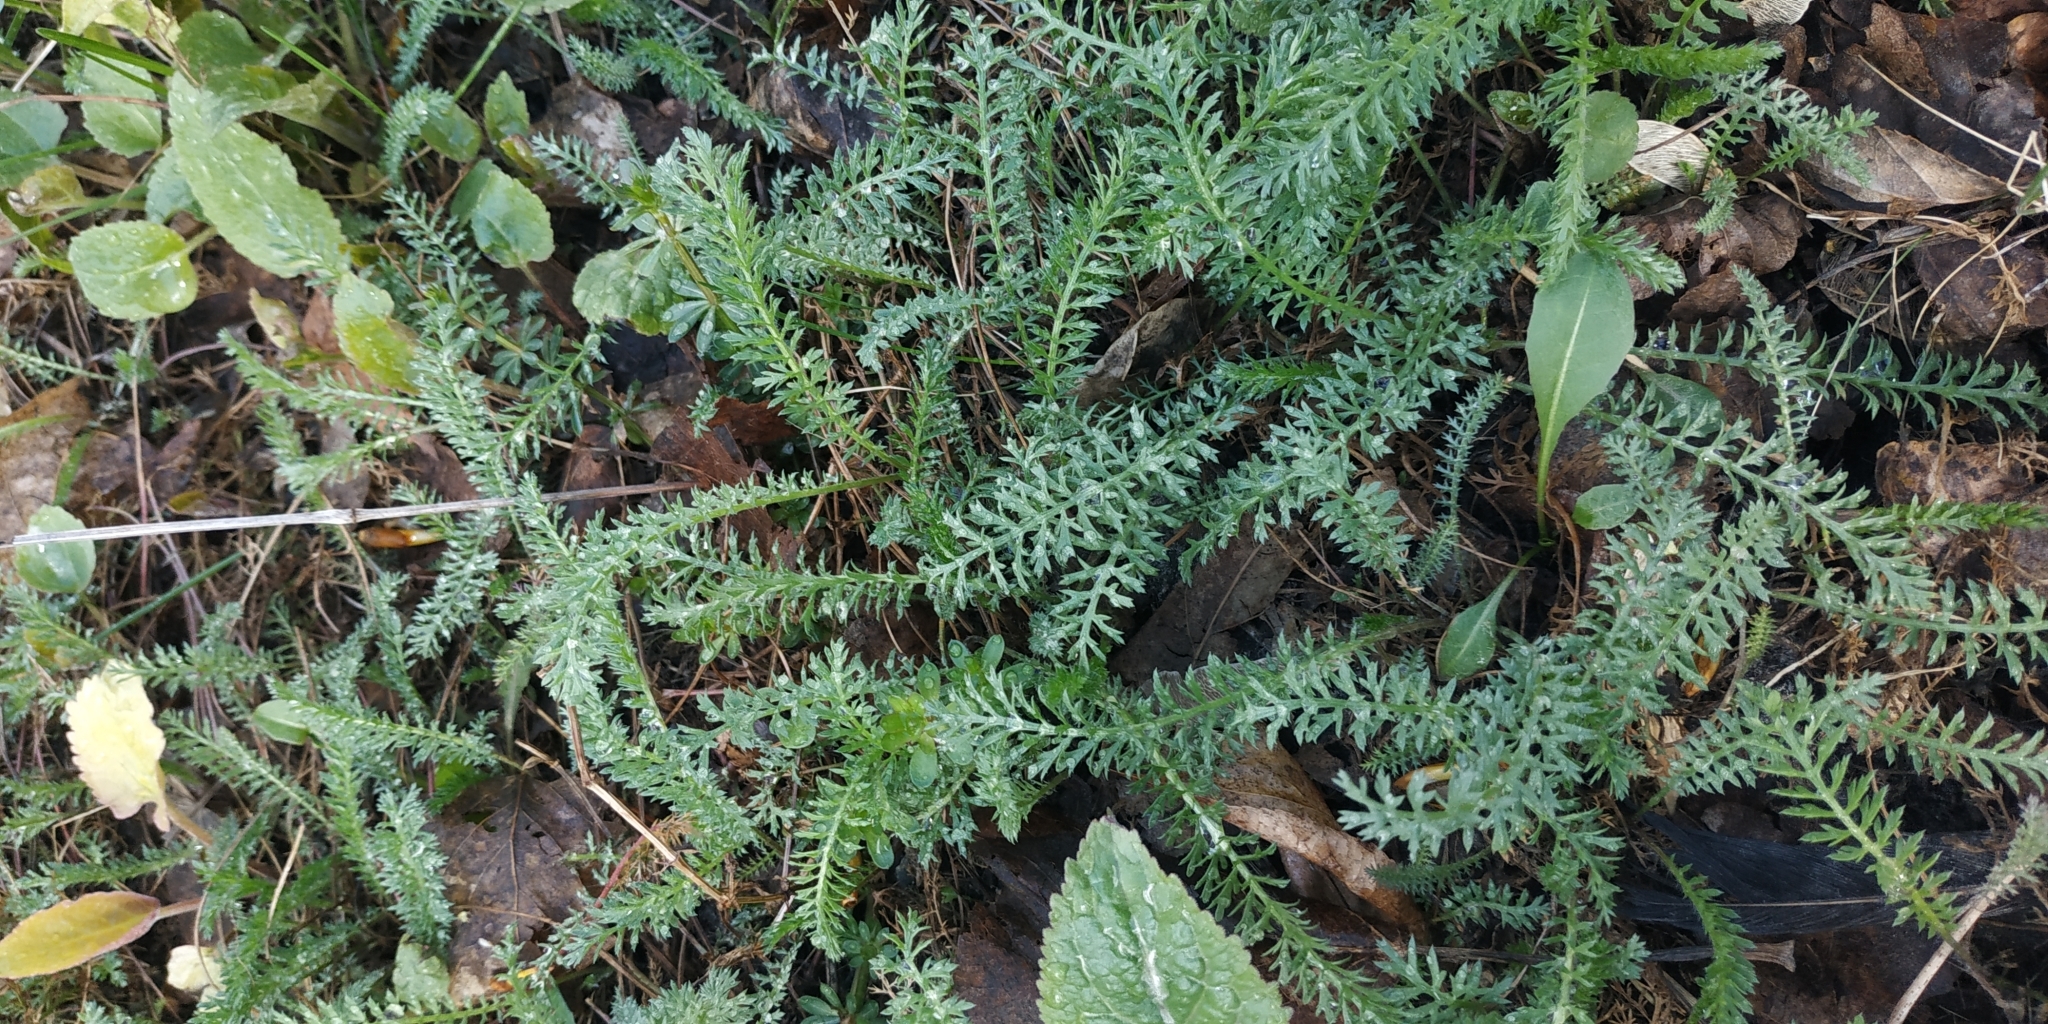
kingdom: Plantae
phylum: Tracheophyta
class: Magnoliopsida
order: Asterales
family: Asteraceae
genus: Achillea
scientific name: Achillea millefolium
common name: Yarrow
